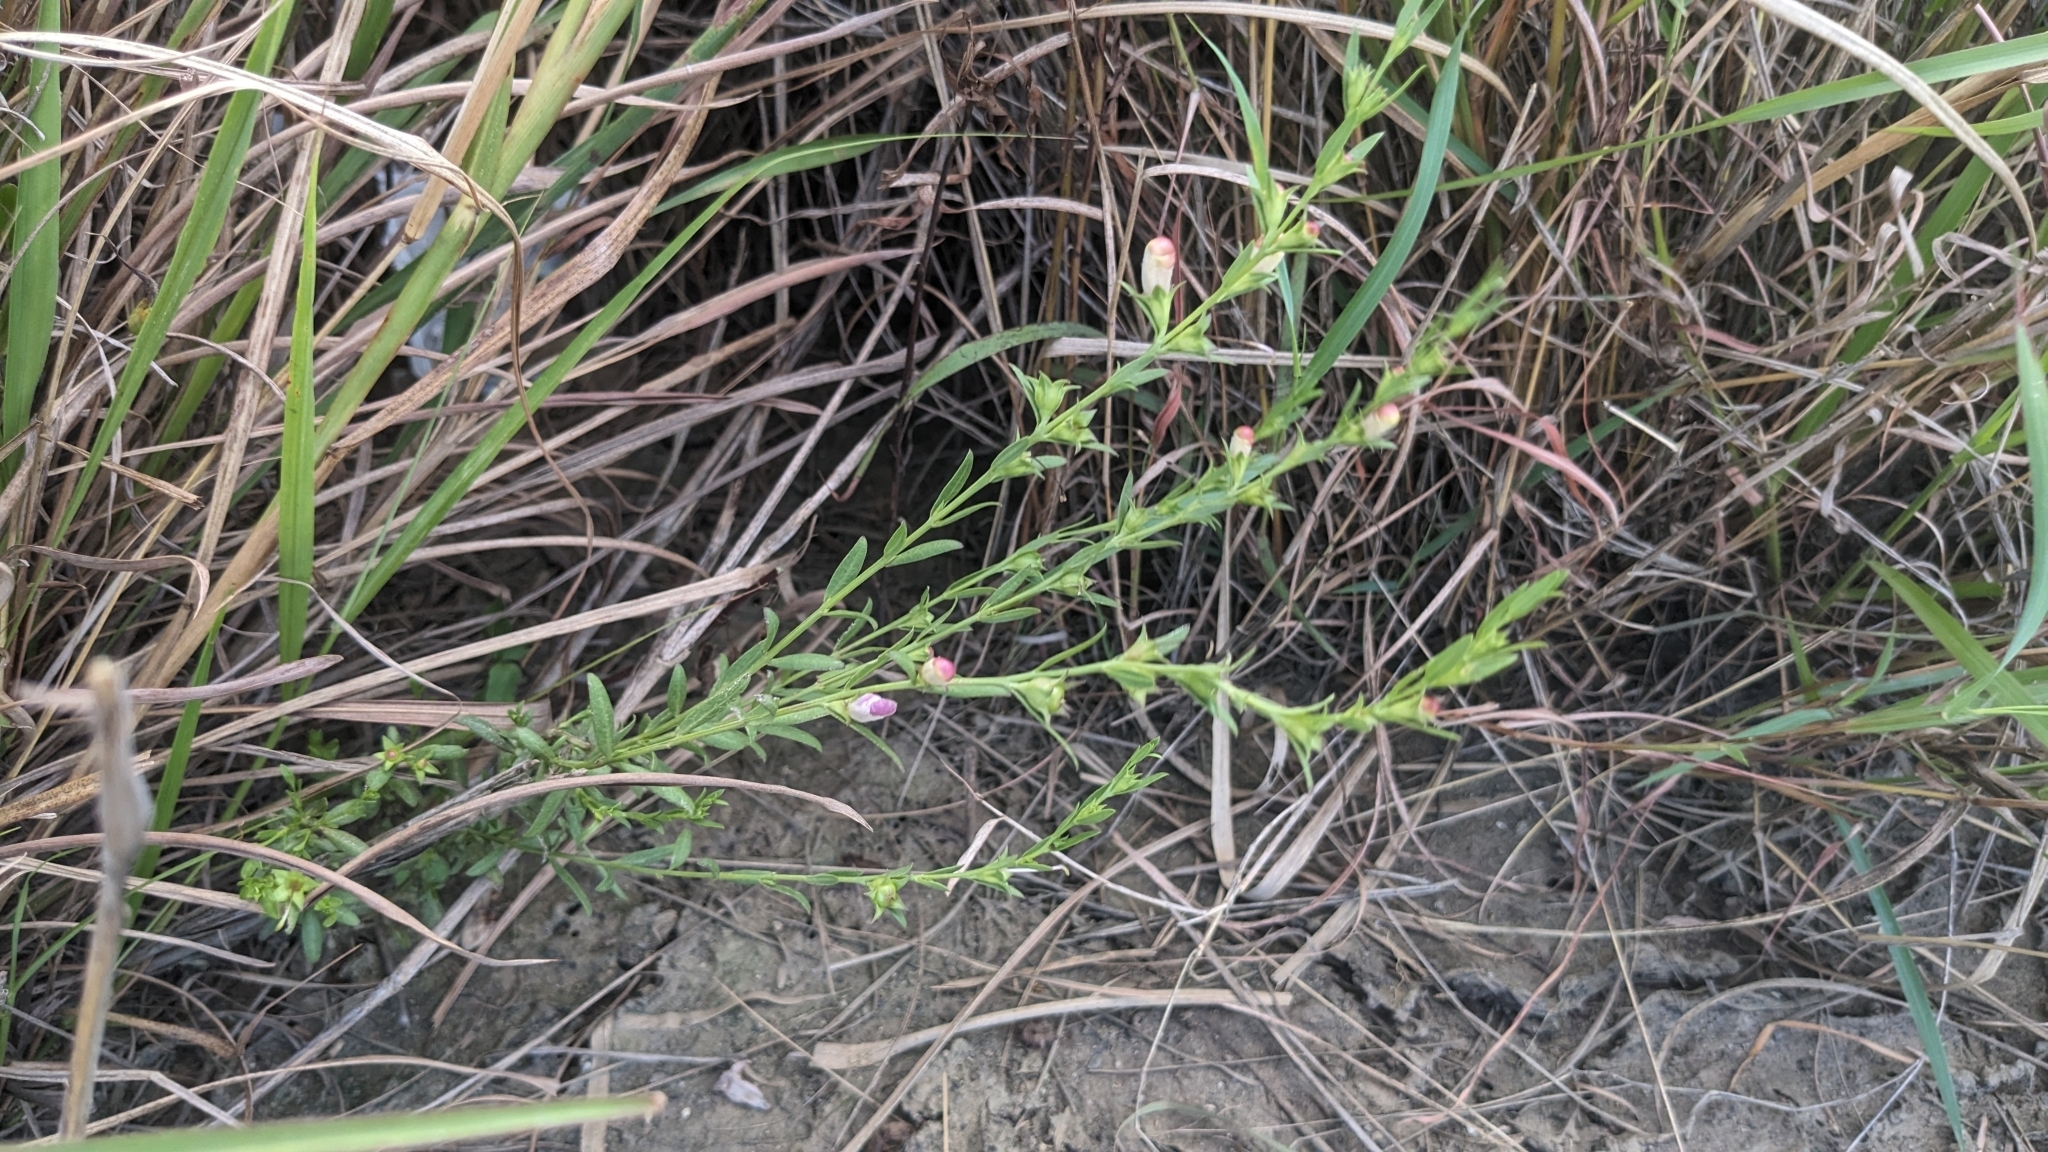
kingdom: Plantae
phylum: Tracheophyta
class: Magnoliopsida
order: Lamiales
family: Orobanchaceae
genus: Agalinis
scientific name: Agalinis heterophylla
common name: Prairie agalinis
